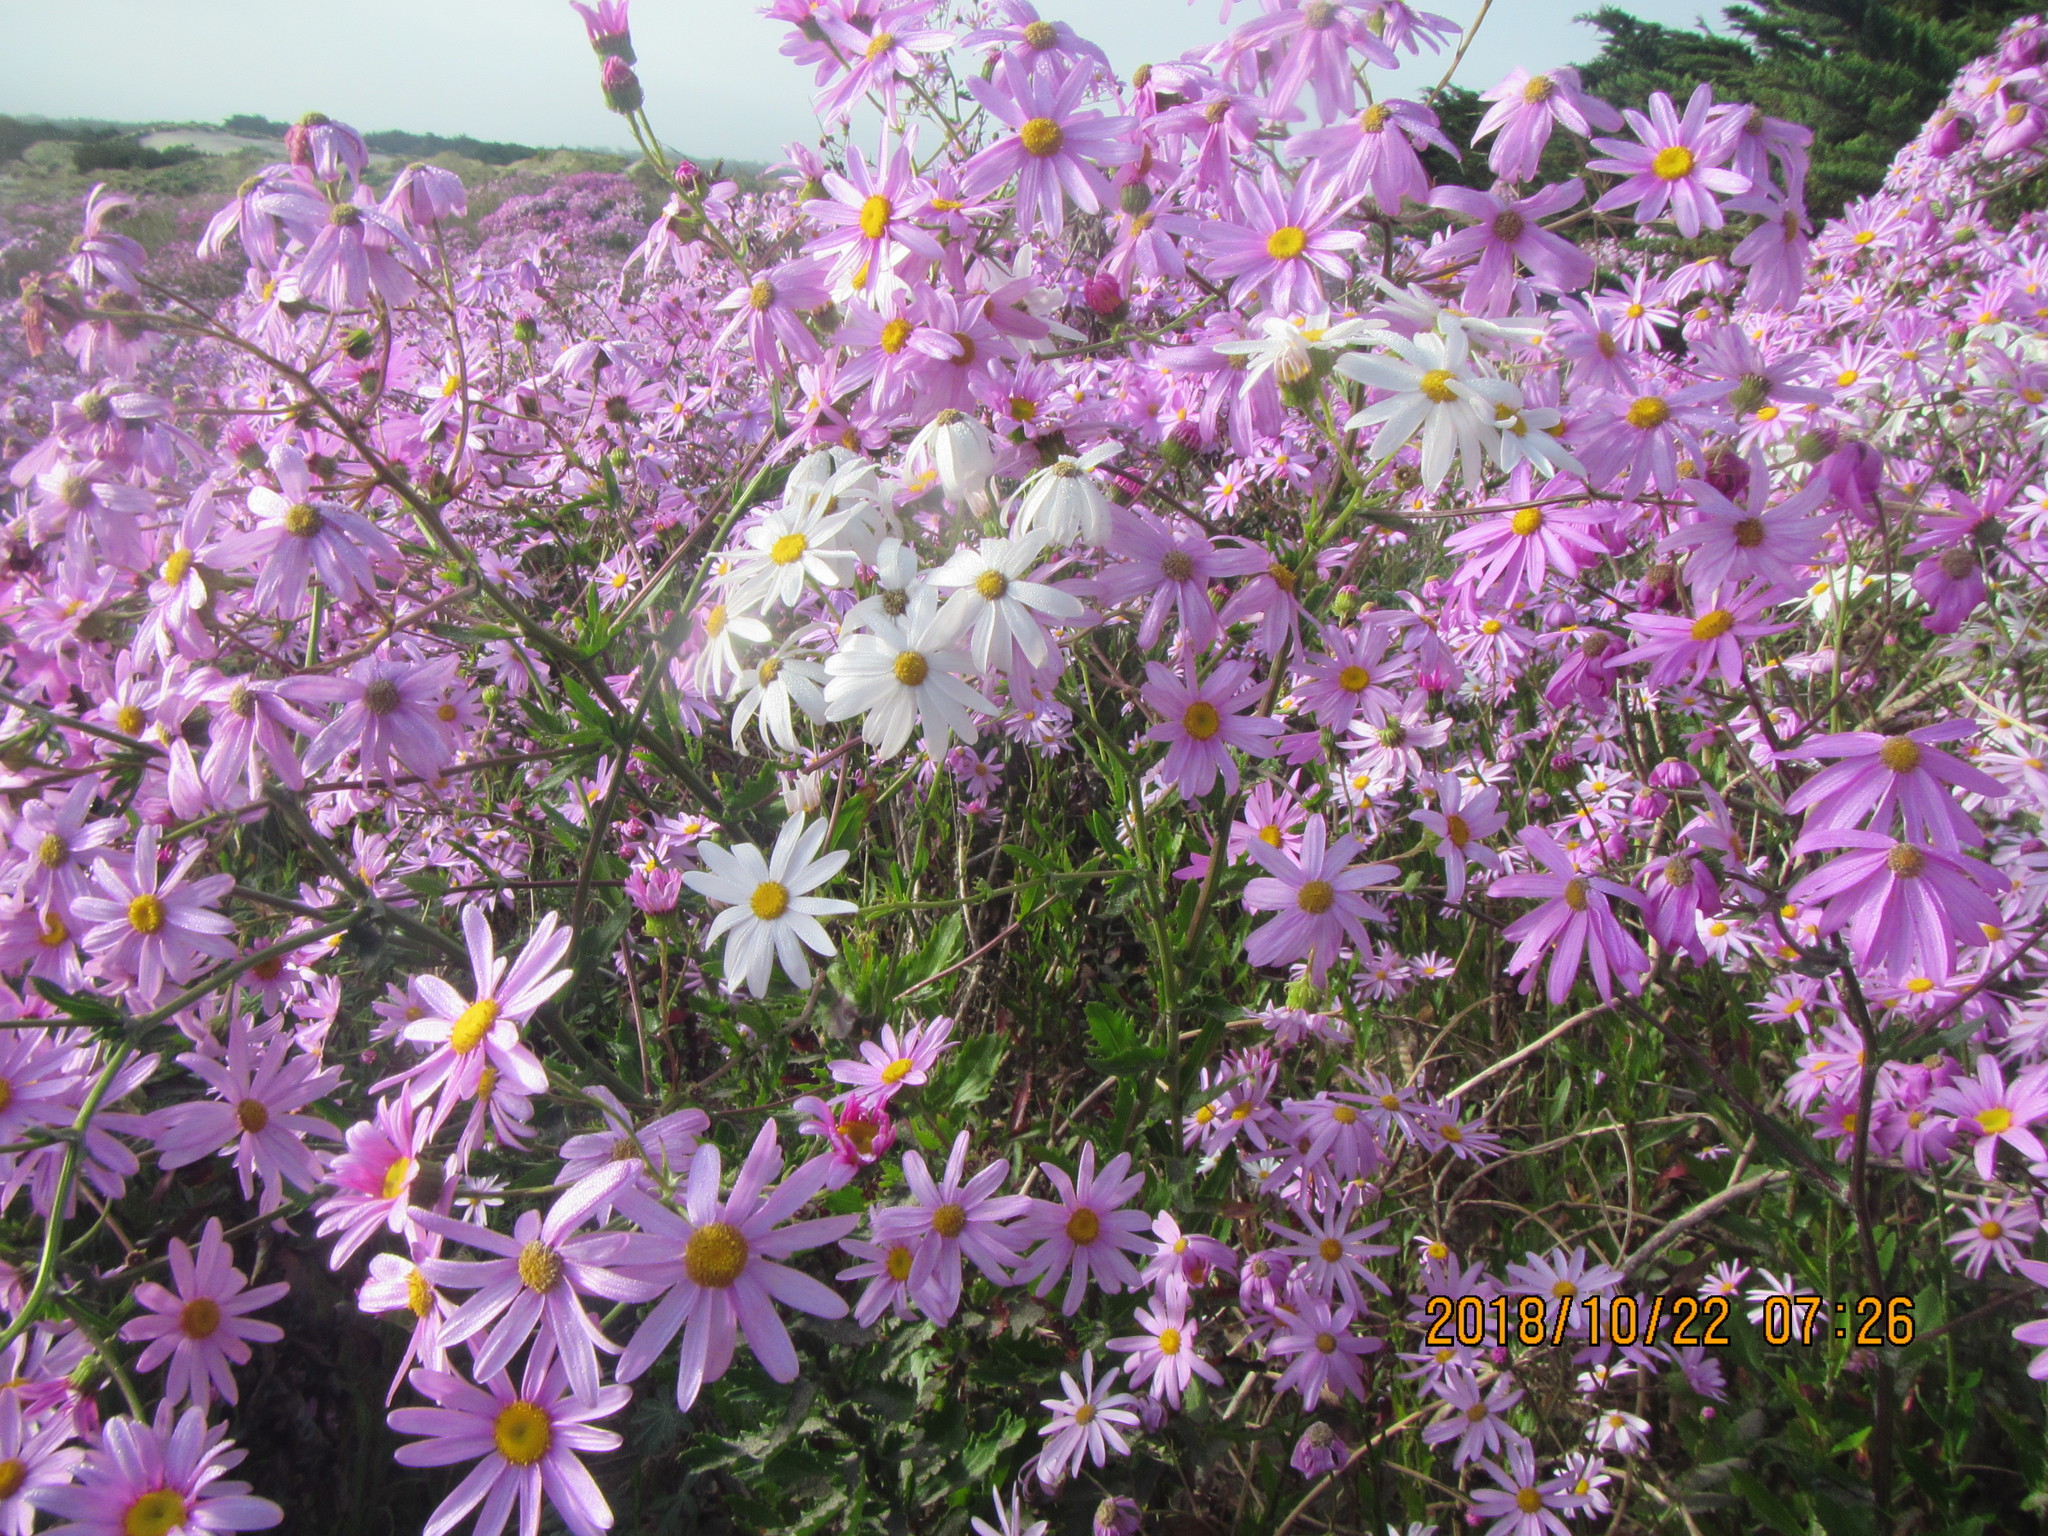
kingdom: Plantae
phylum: Tracheophyta
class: Magnoliopsida
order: Asterales
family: Asteraceae
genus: Senecio
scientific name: Senecio glastifolius
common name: Woad-leaved ragwort
